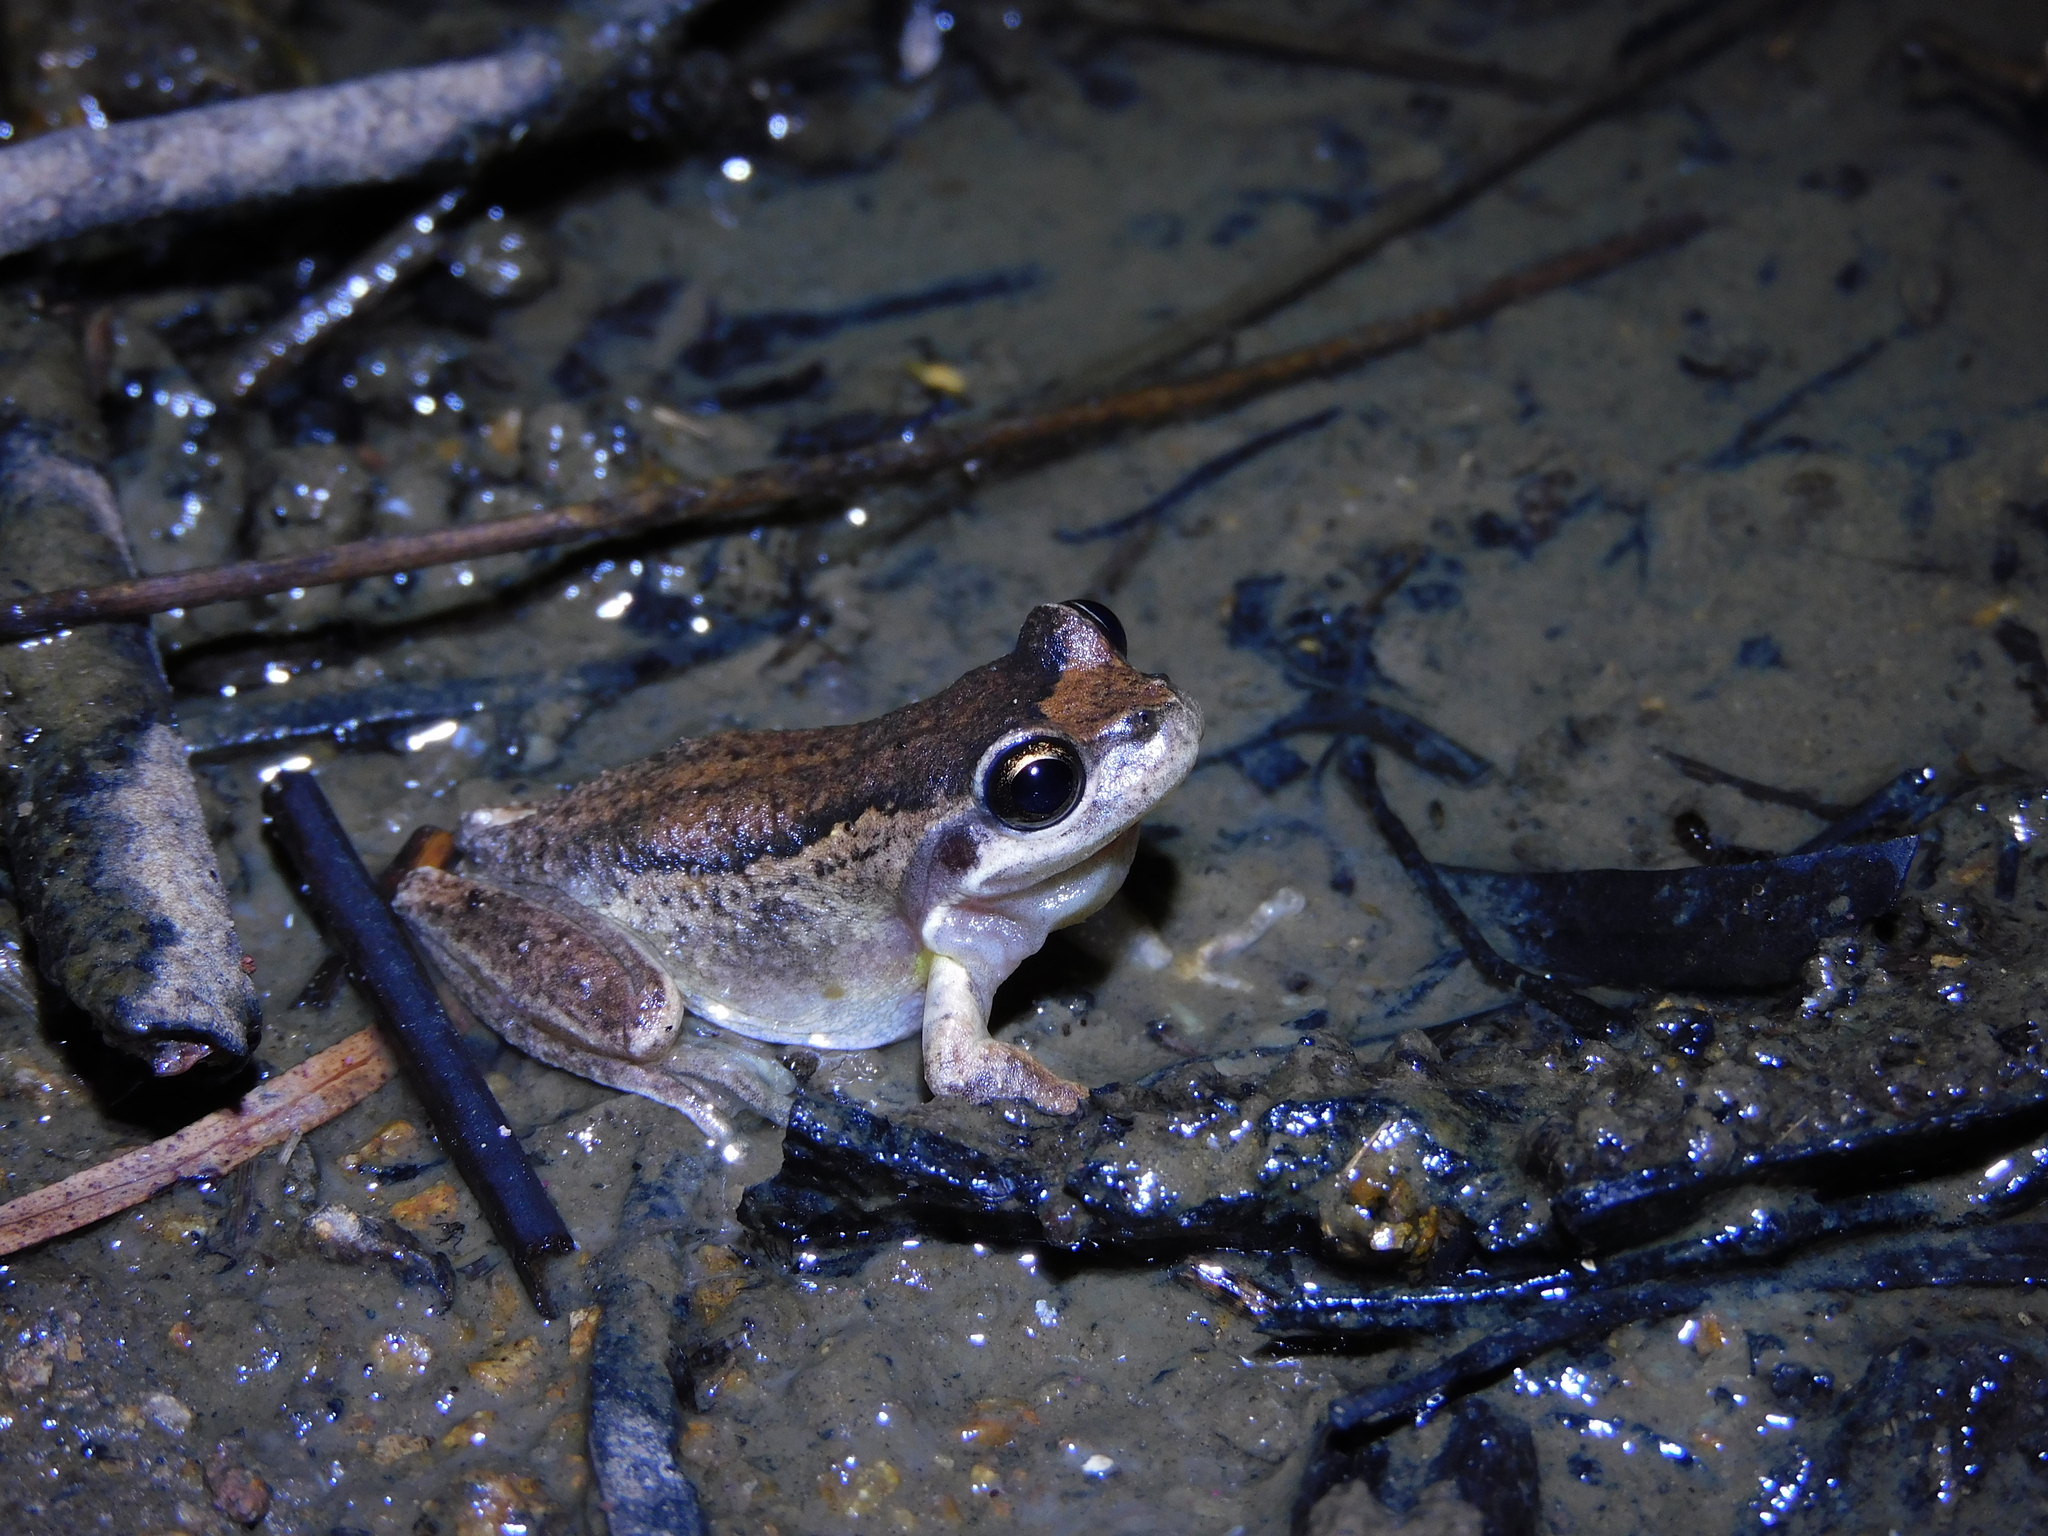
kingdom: Animalia
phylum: Chordata
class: Amphibia
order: Anura
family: Pelodryadidae
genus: Litoria
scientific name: Litoria ewingii
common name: Southern brown tree frog
